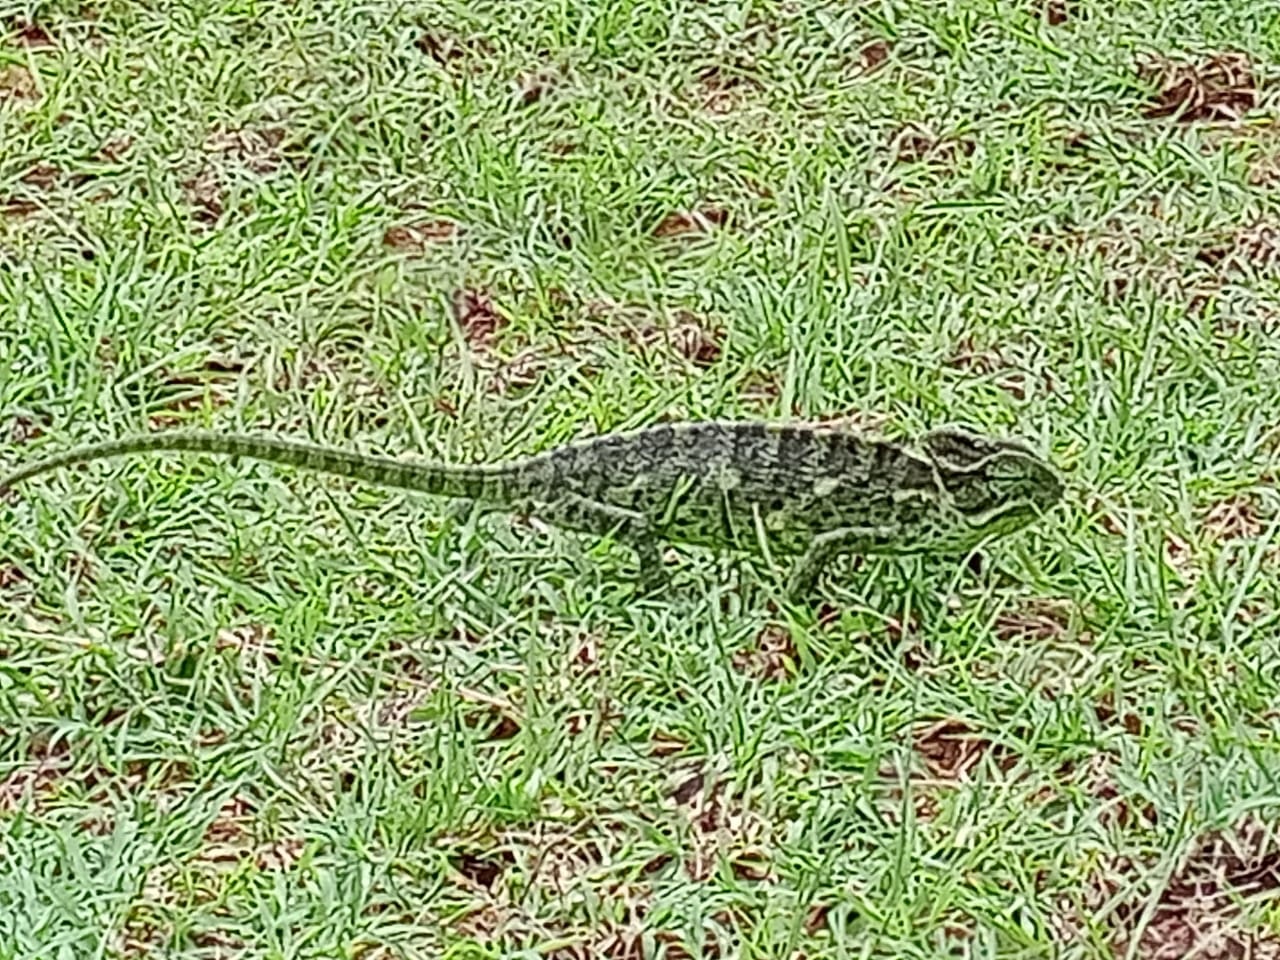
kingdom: Animalia
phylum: Chordata
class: Squamata
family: Chamaeleonidae
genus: Chamaeleo
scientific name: Chamaeleo zeylanicus
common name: Indian chameleon
